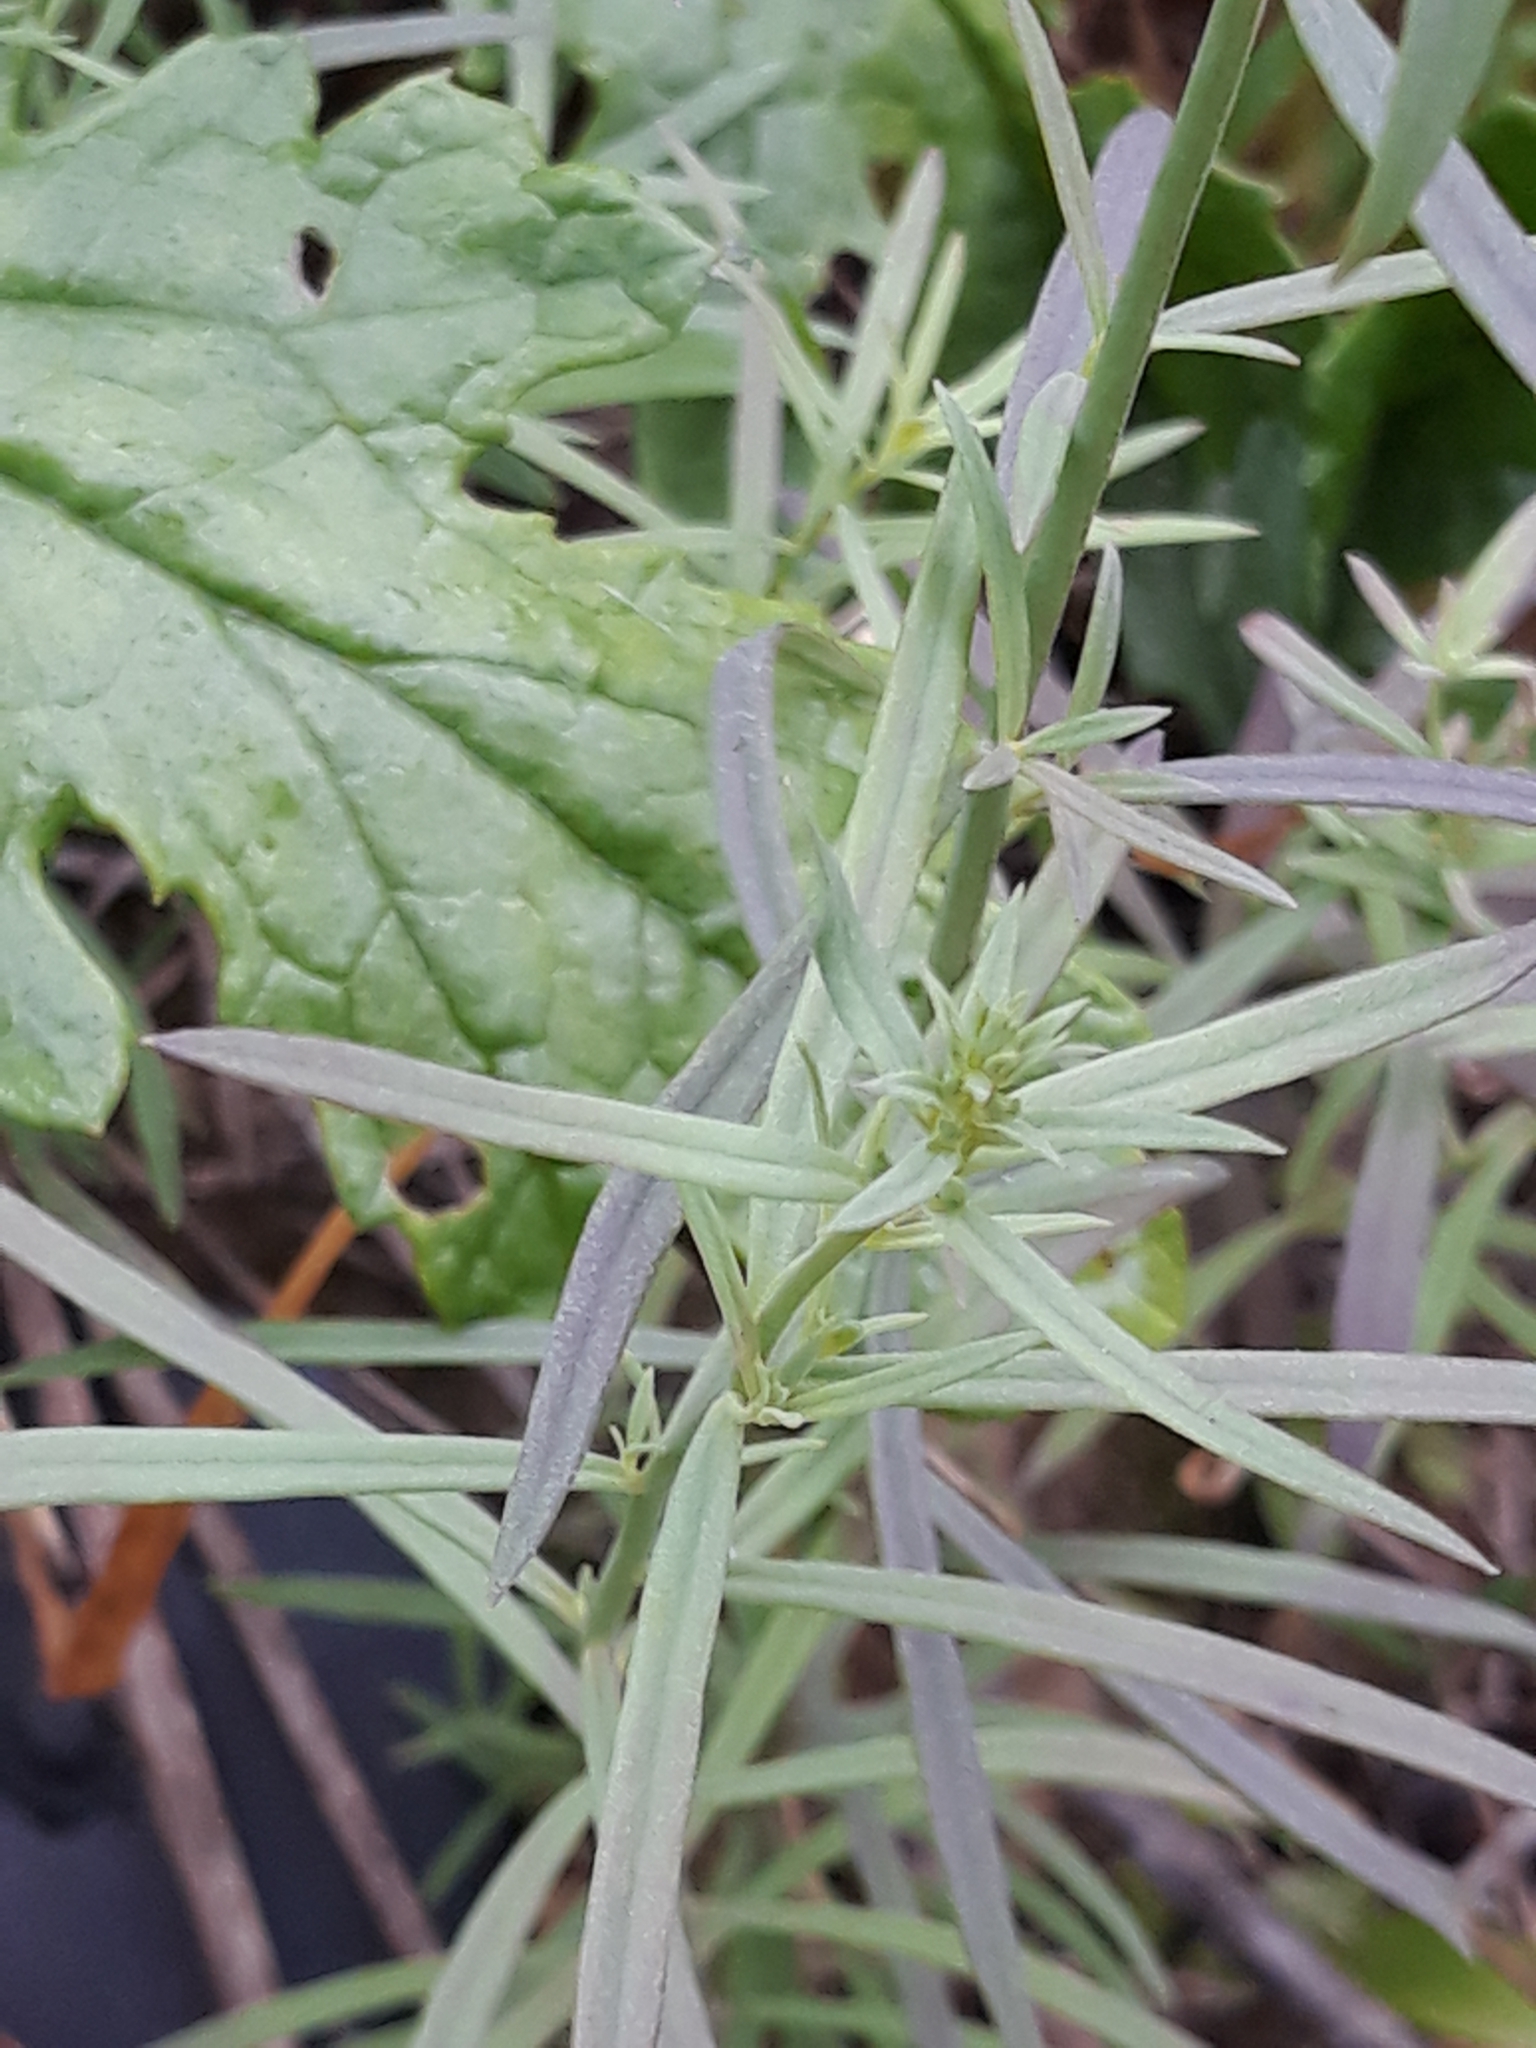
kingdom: Plantae
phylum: Tracheophyta
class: Magnoliopsida
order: Lamiales
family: Plantaginaceae
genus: Linaria
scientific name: Linaria vulgaris
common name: Butter and eggs
